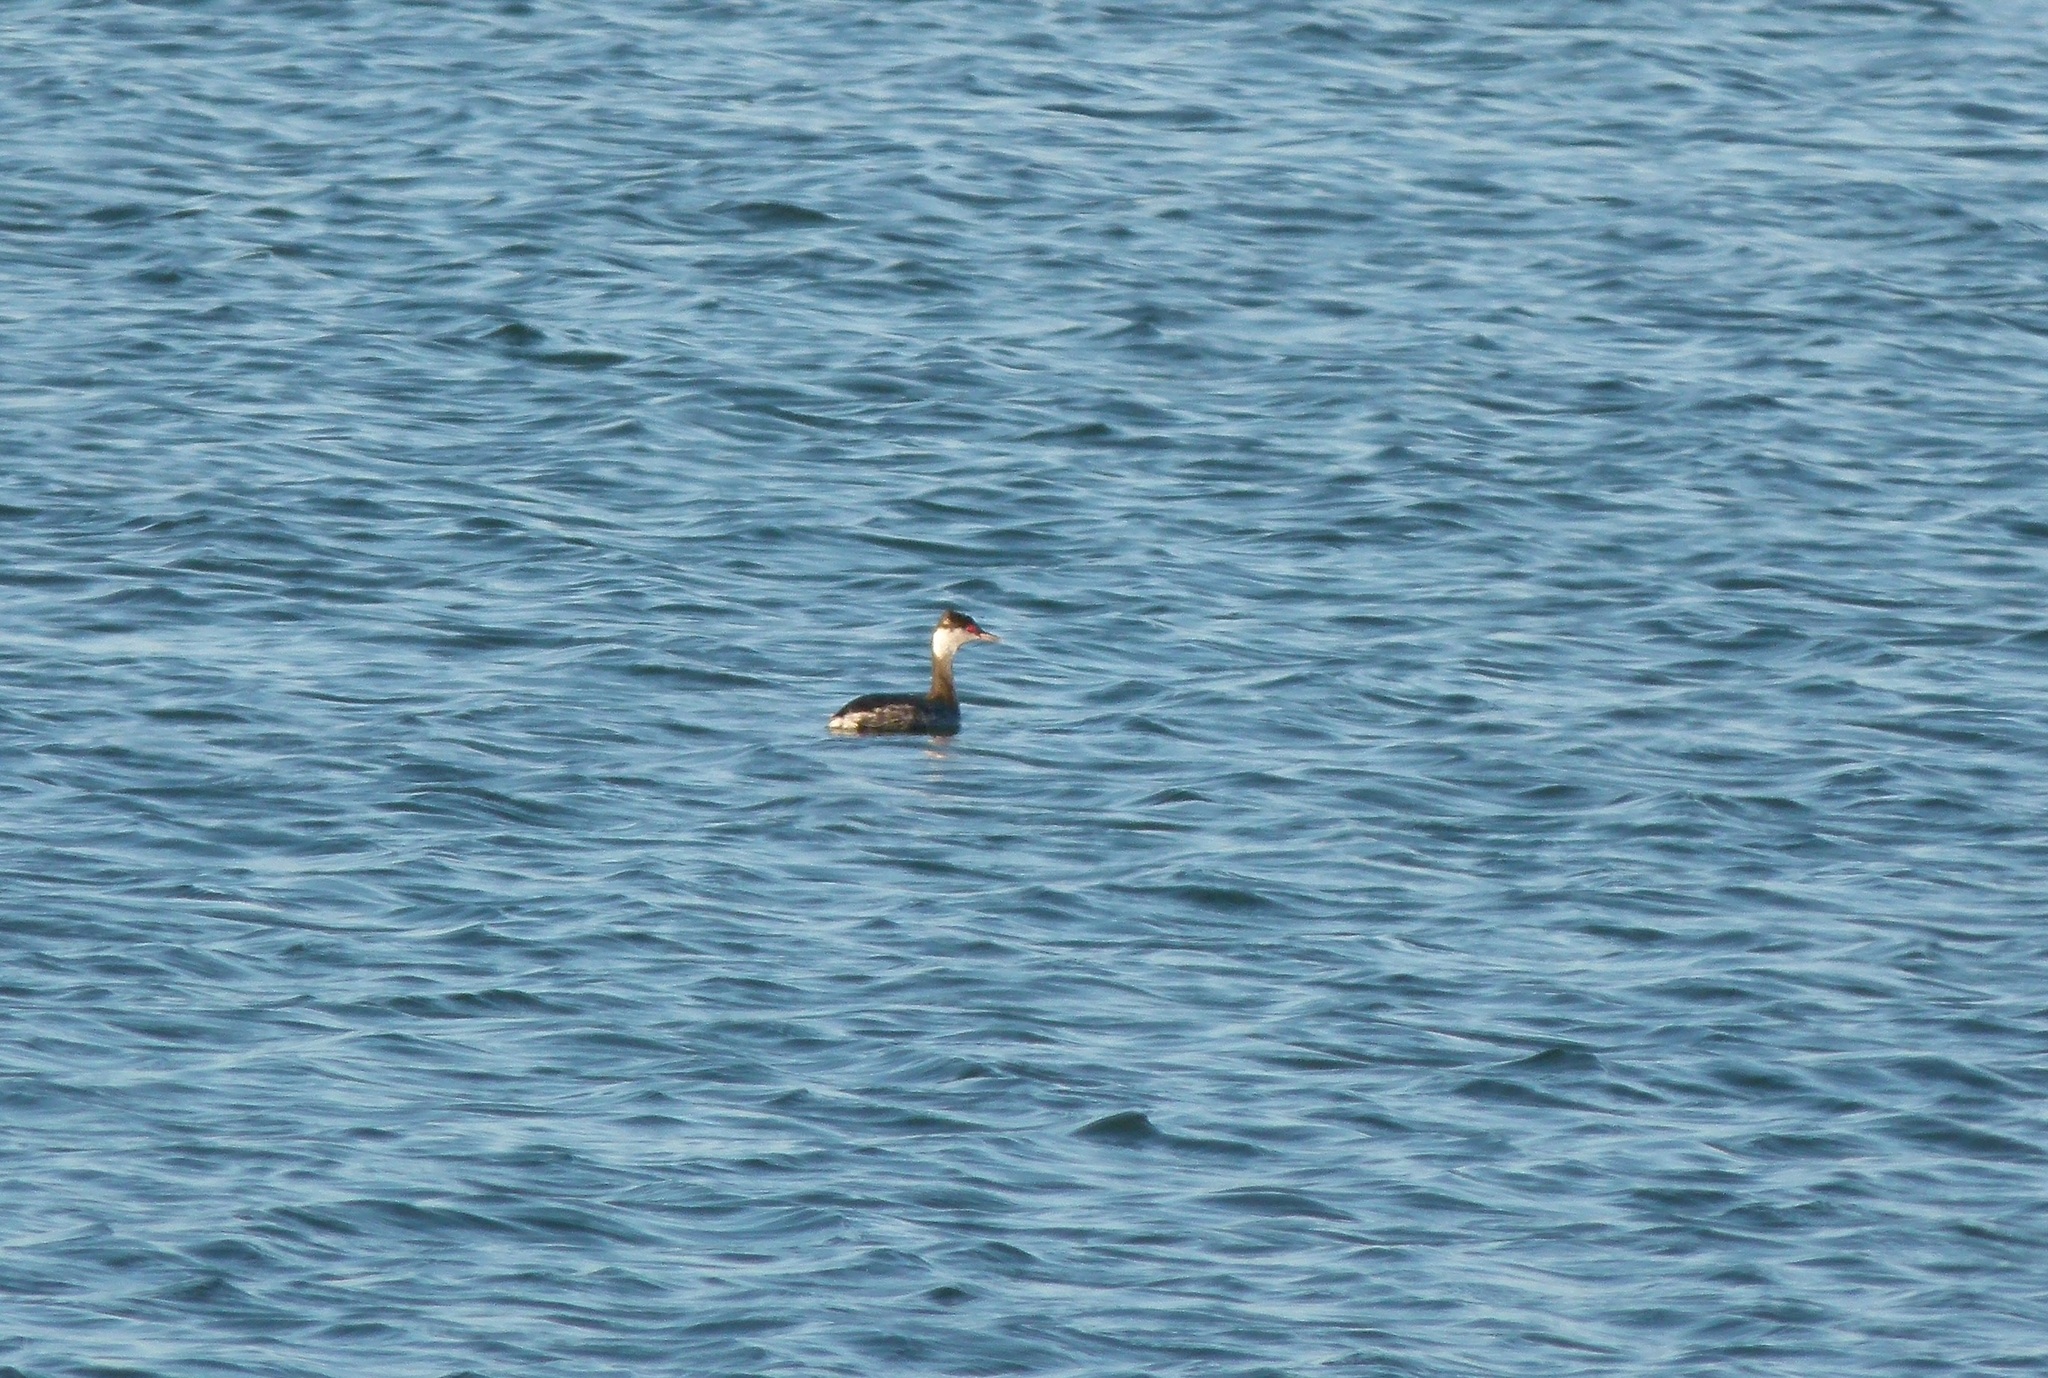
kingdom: Animalia
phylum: Chordata
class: Aves
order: Podicipediformes
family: Podicipedidae
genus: Podiceps
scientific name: Podiceps auritus
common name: Horned grebe
